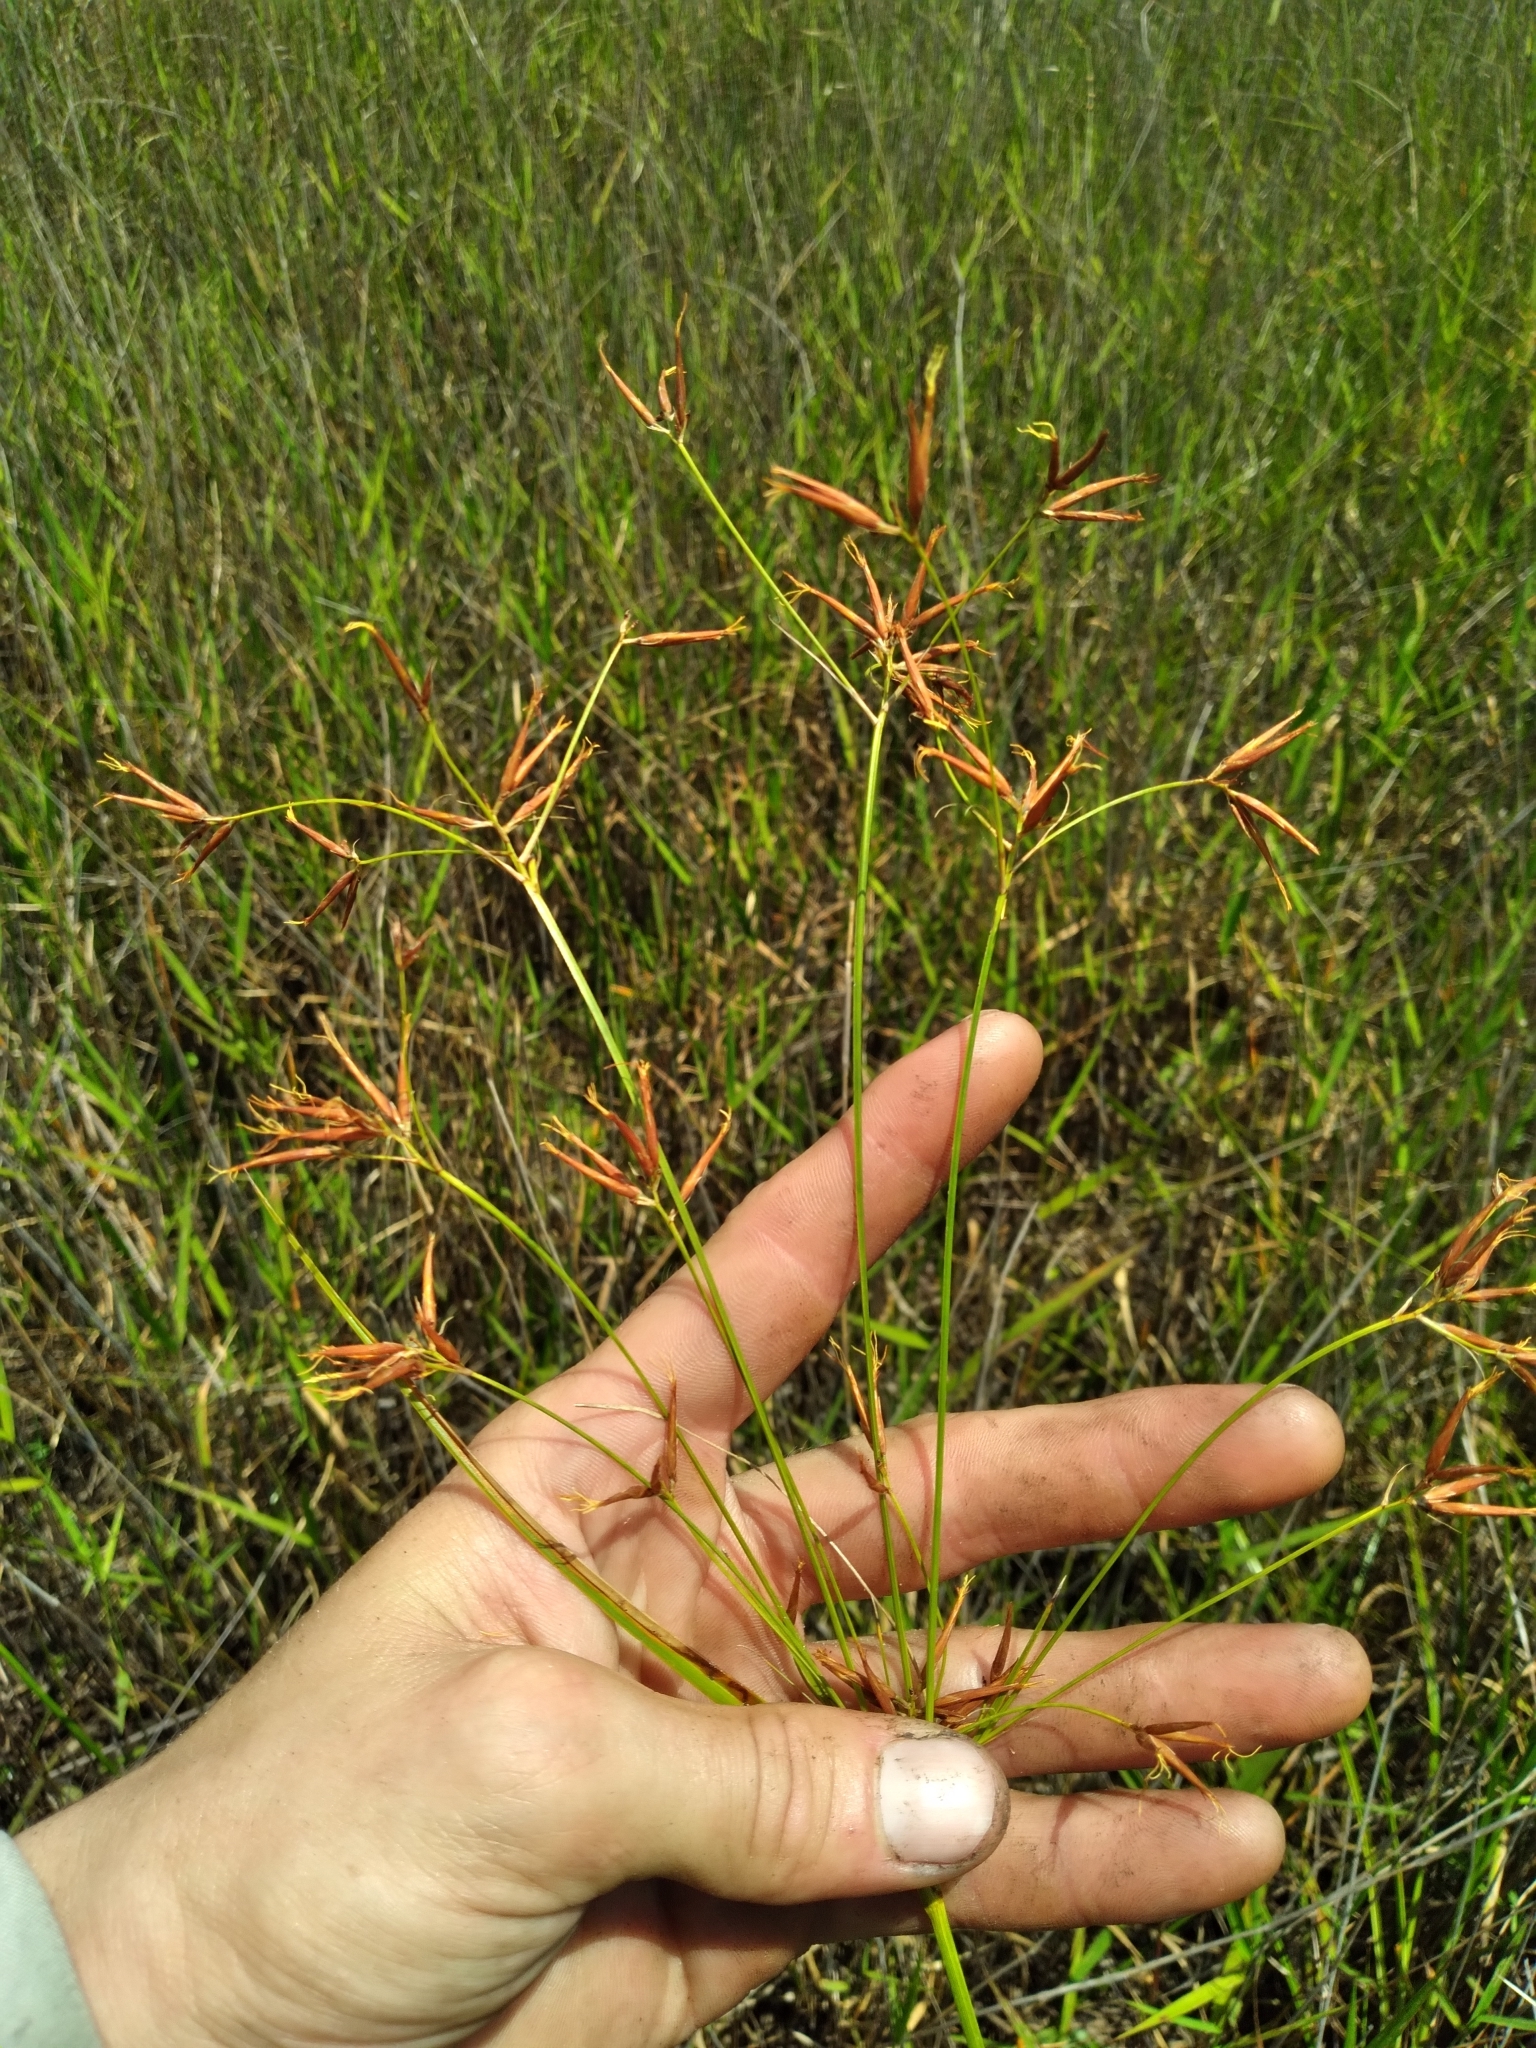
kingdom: Plantae
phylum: Tracheophyta
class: Liliopsida
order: Poales
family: Cyperaceae
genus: Rhynchospora
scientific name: Rhynchospora inundata
